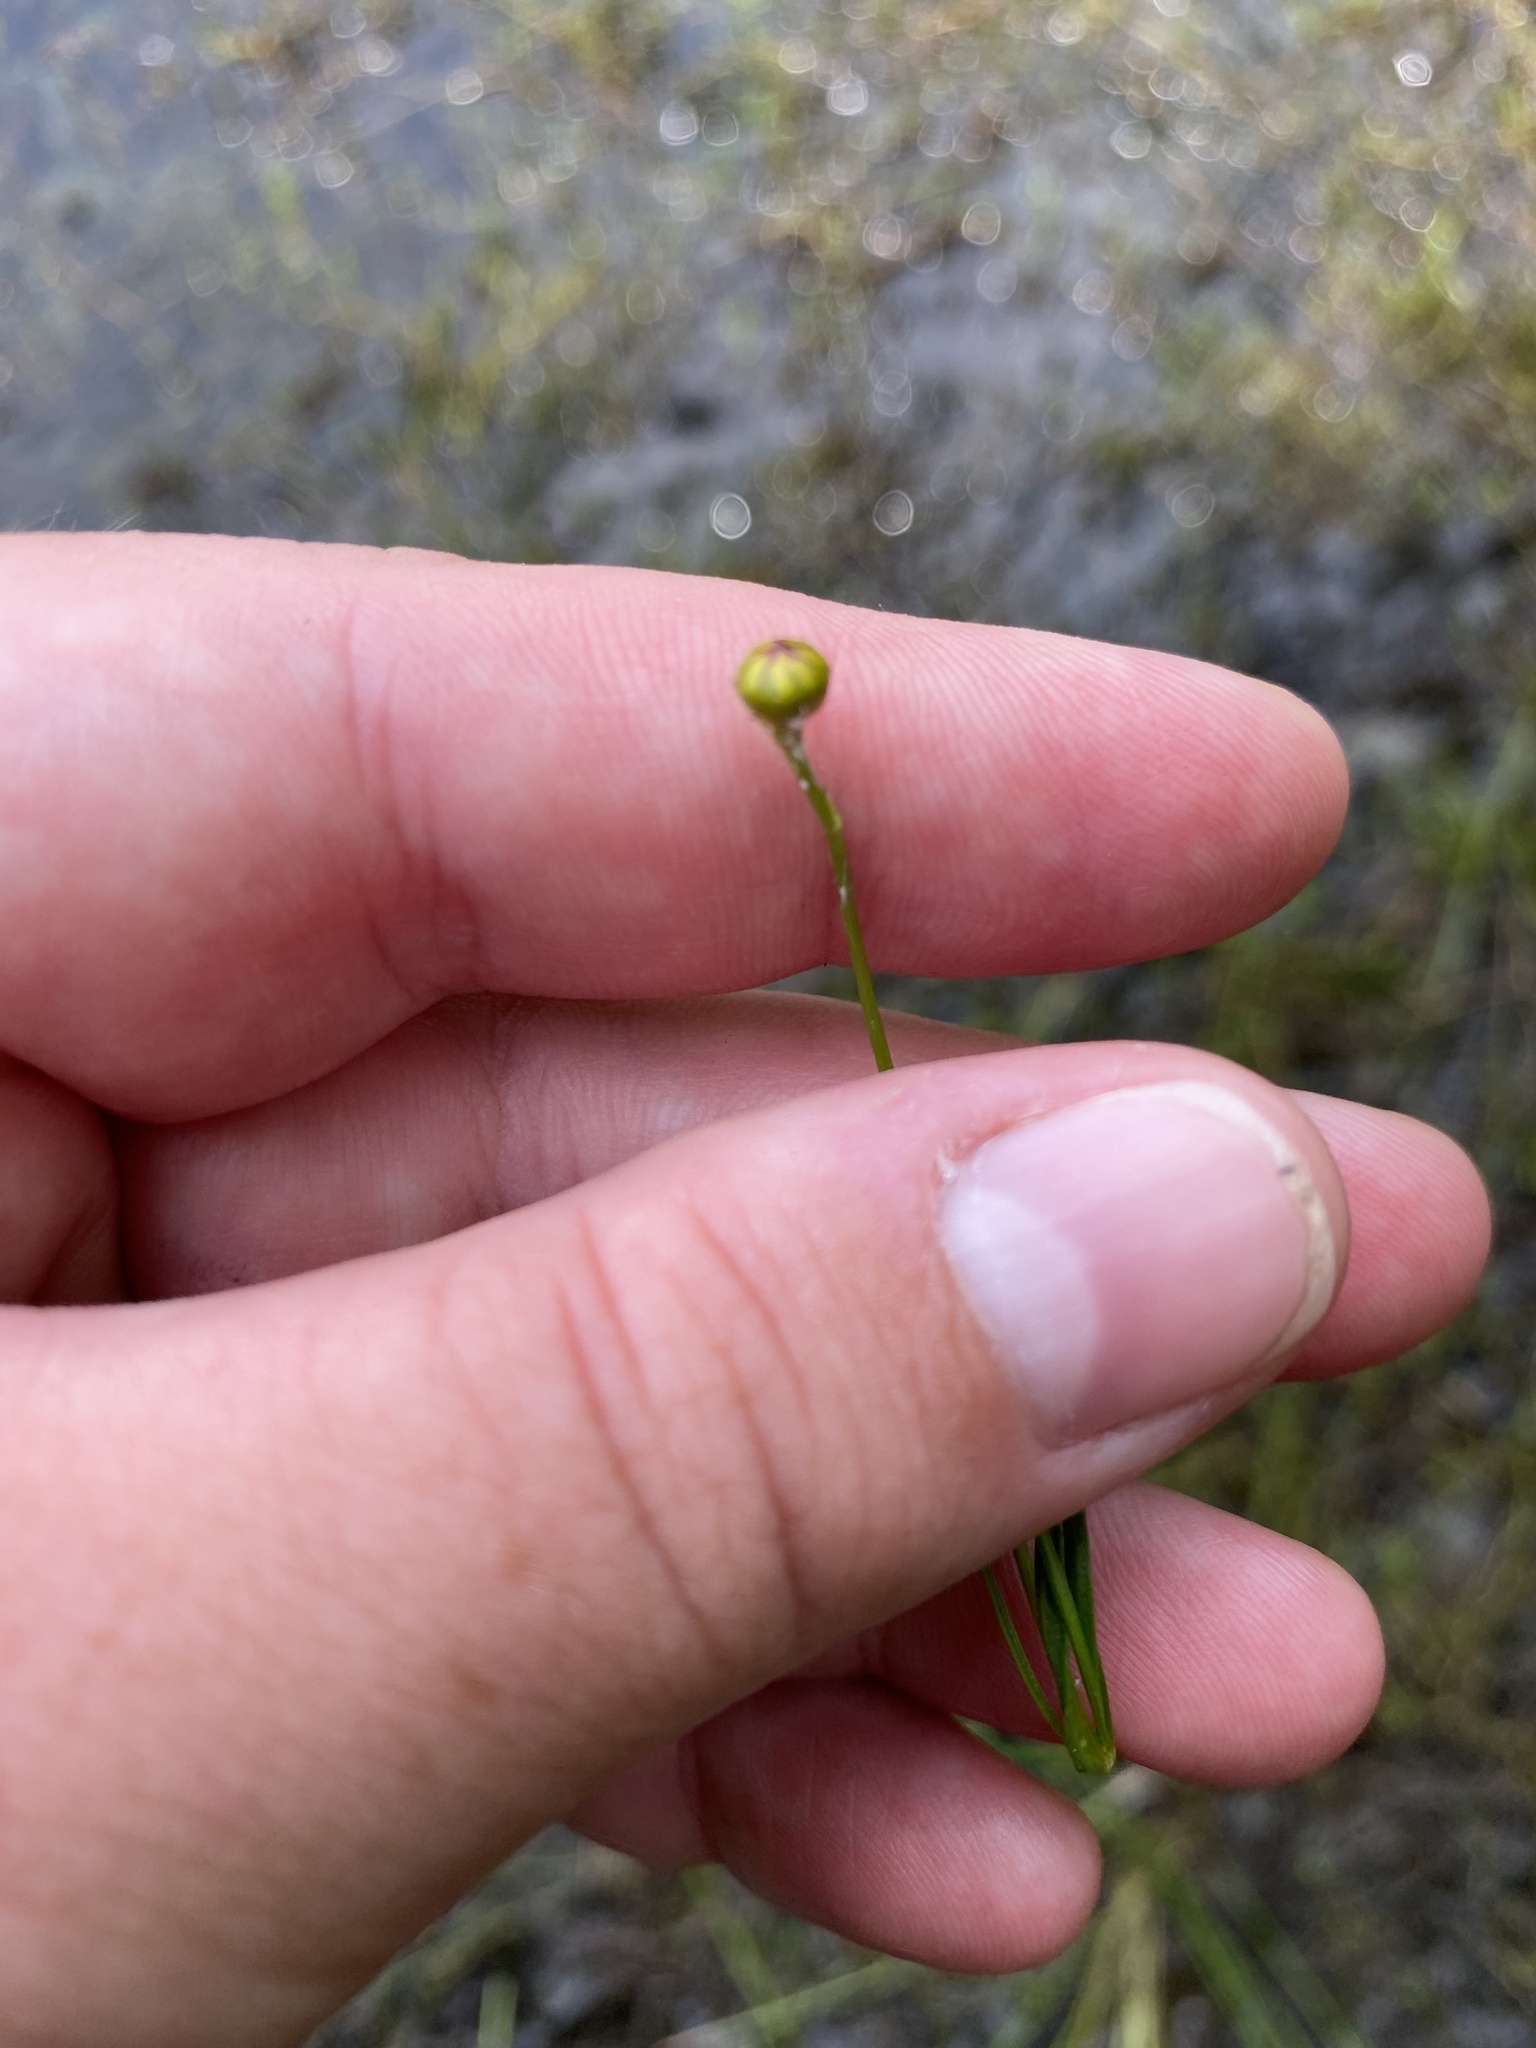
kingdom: Plantae
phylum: Tracheophyta
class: Magnoliopsida
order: Asterales
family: Asteraceae
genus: Coreopsis
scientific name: Coreopsis rosea
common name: Pink coreopsis
